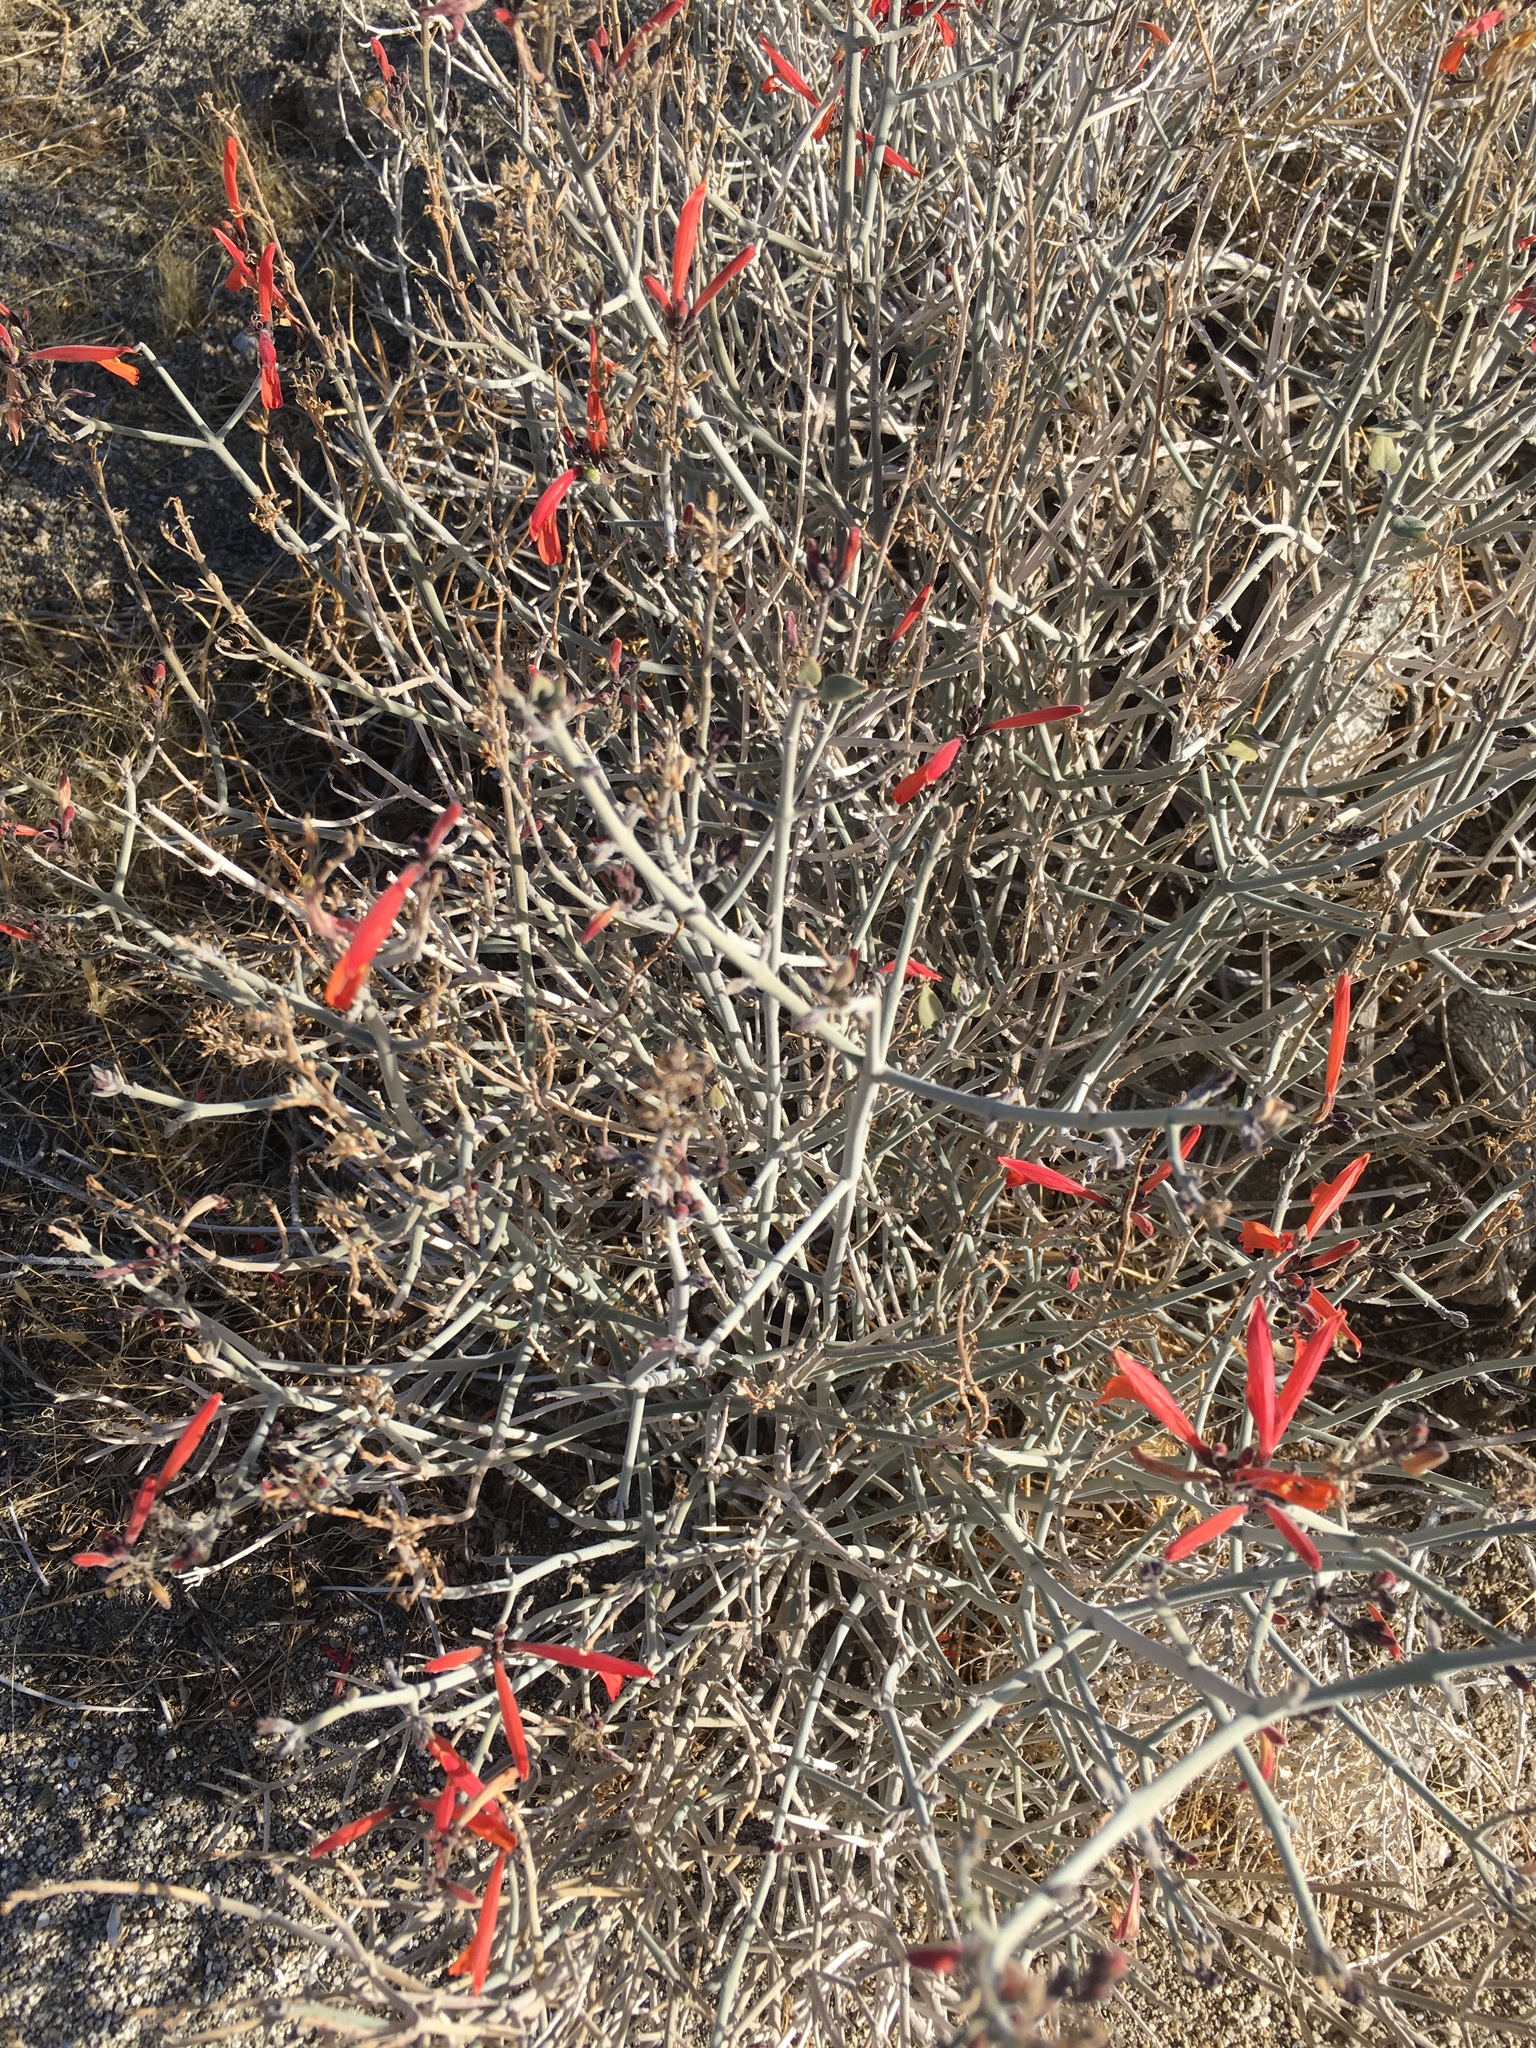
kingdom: Plantae
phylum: Tracheophyta
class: Magnoliopsida
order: Lamiales
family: Acanthaceae
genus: Justicia
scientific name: Justicia californica
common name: Chuparosa-honeysuckle
